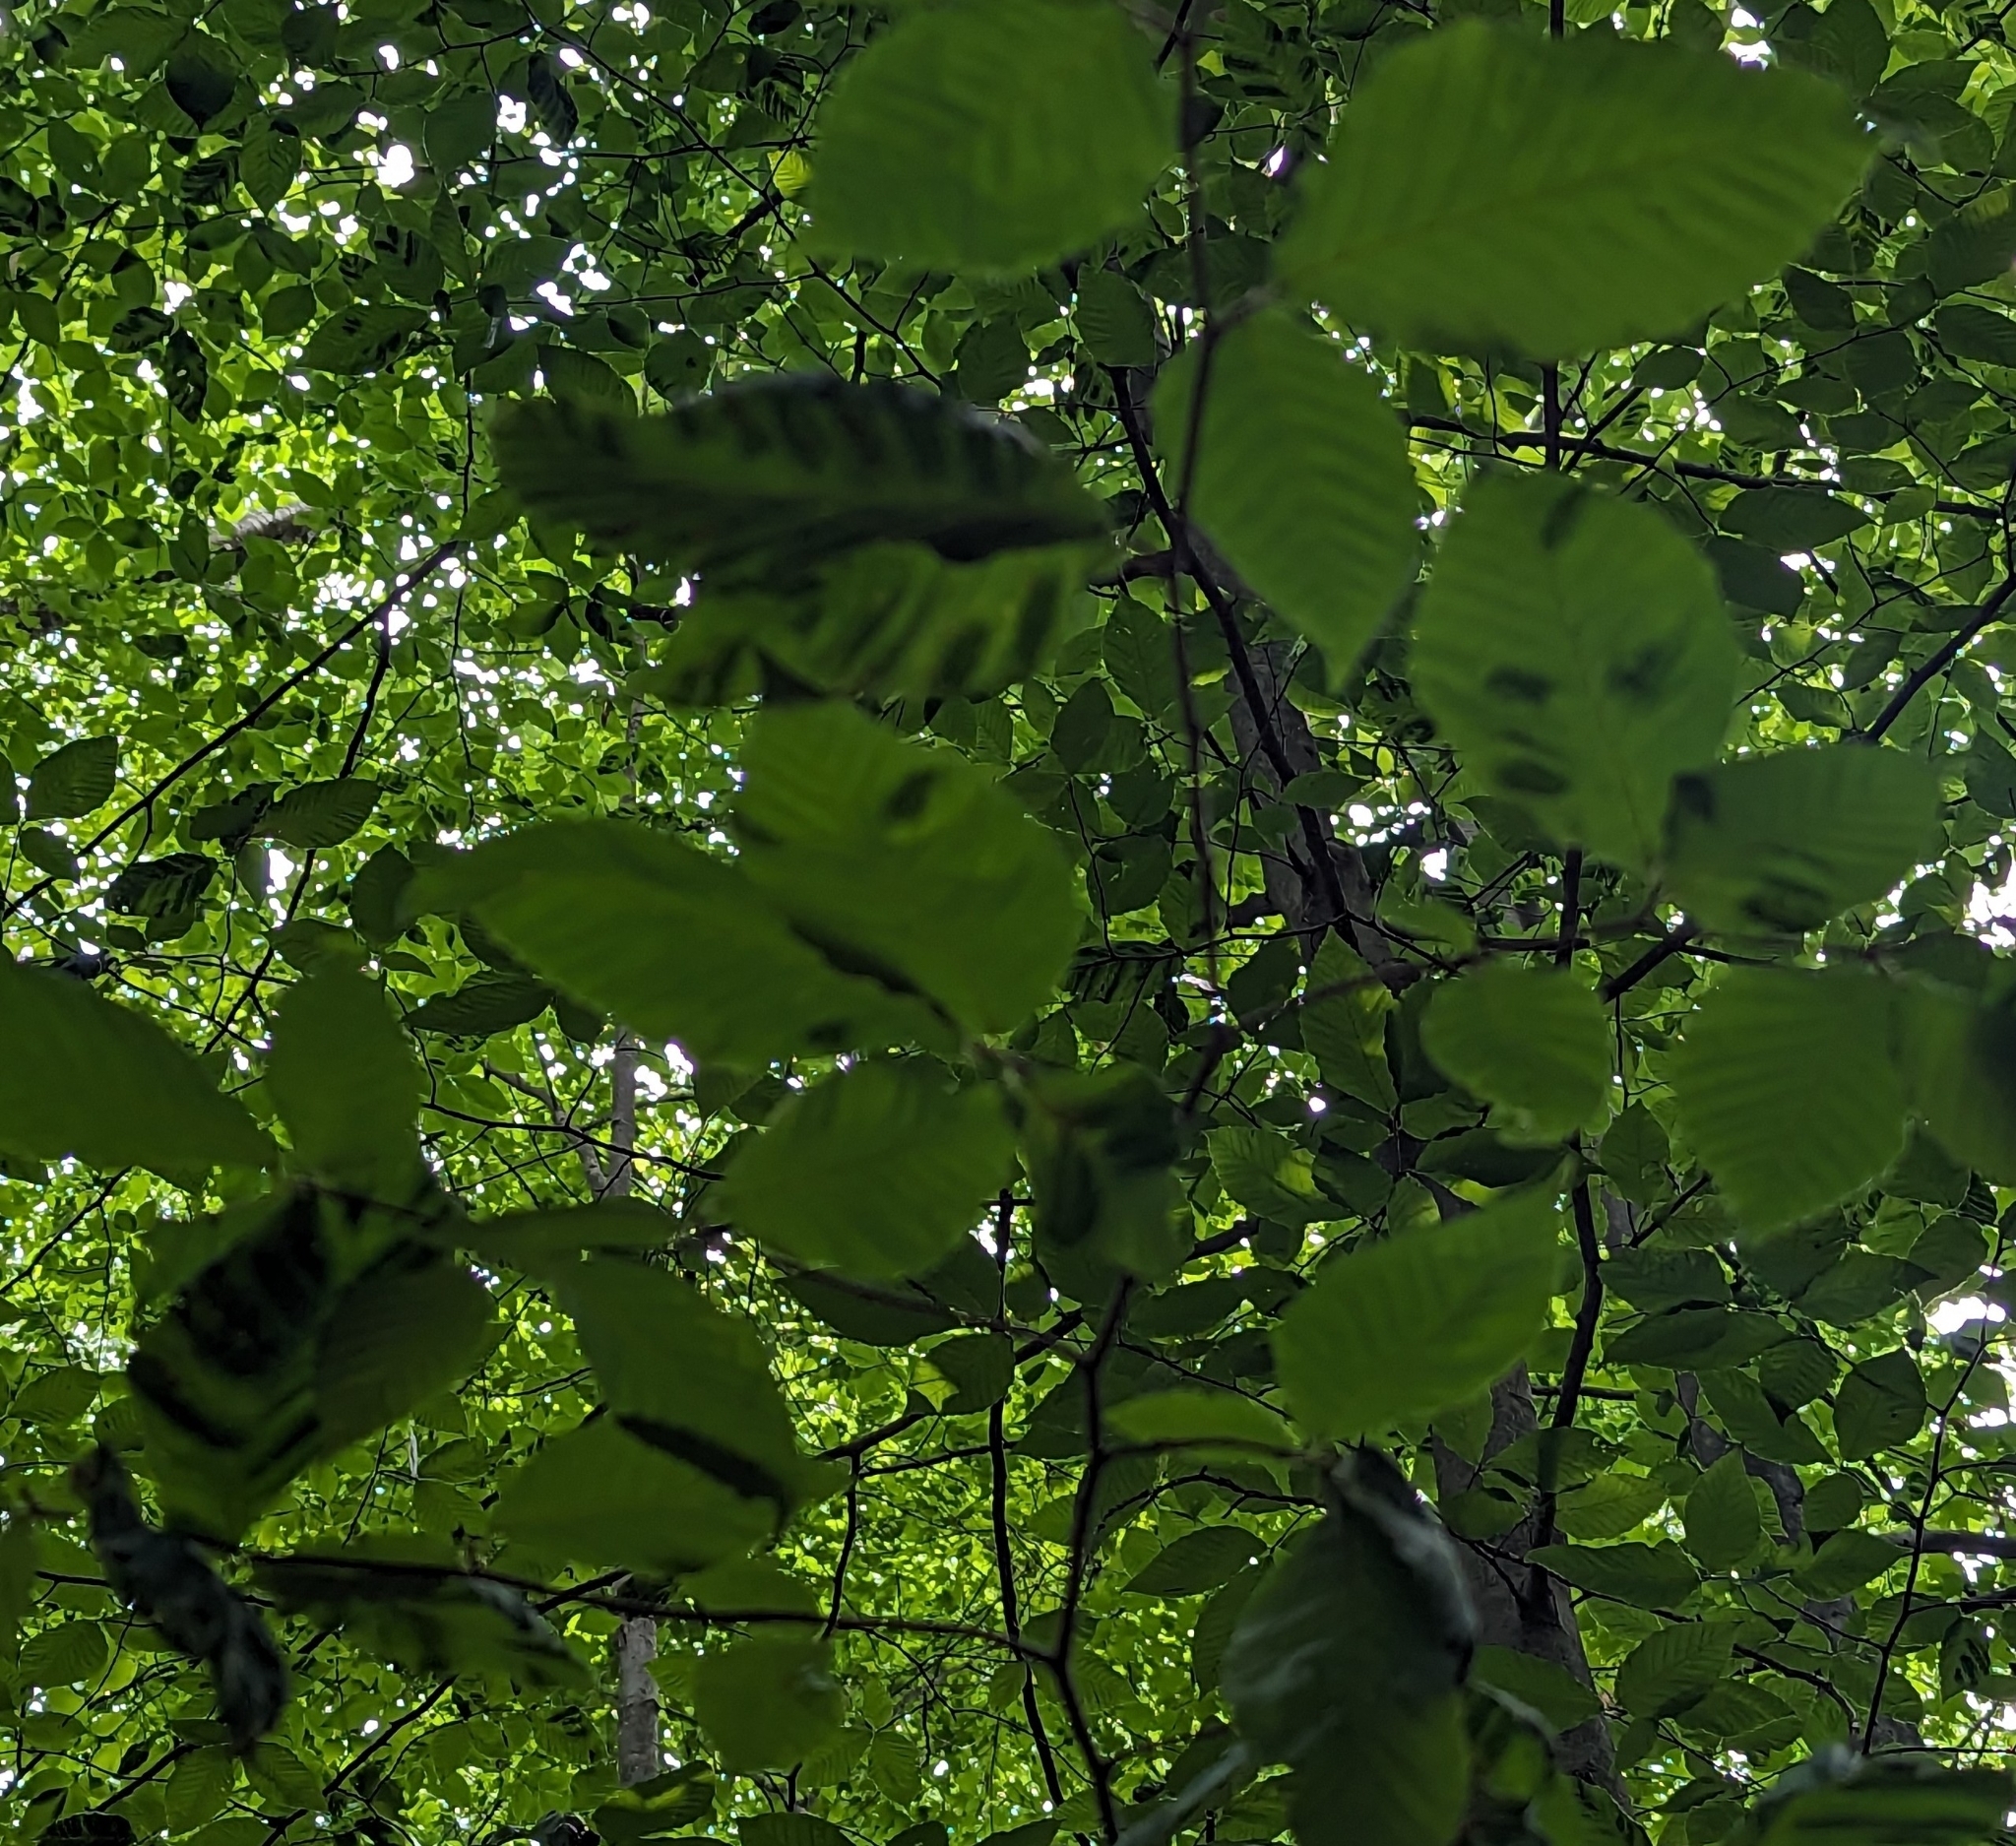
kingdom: Animalia
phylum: Nematoda
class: Chromadorea
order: Rhabditida
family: Anguinidae
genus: Litylenchus
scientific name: Litylenchus crenatae
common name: Beech leaf disease
